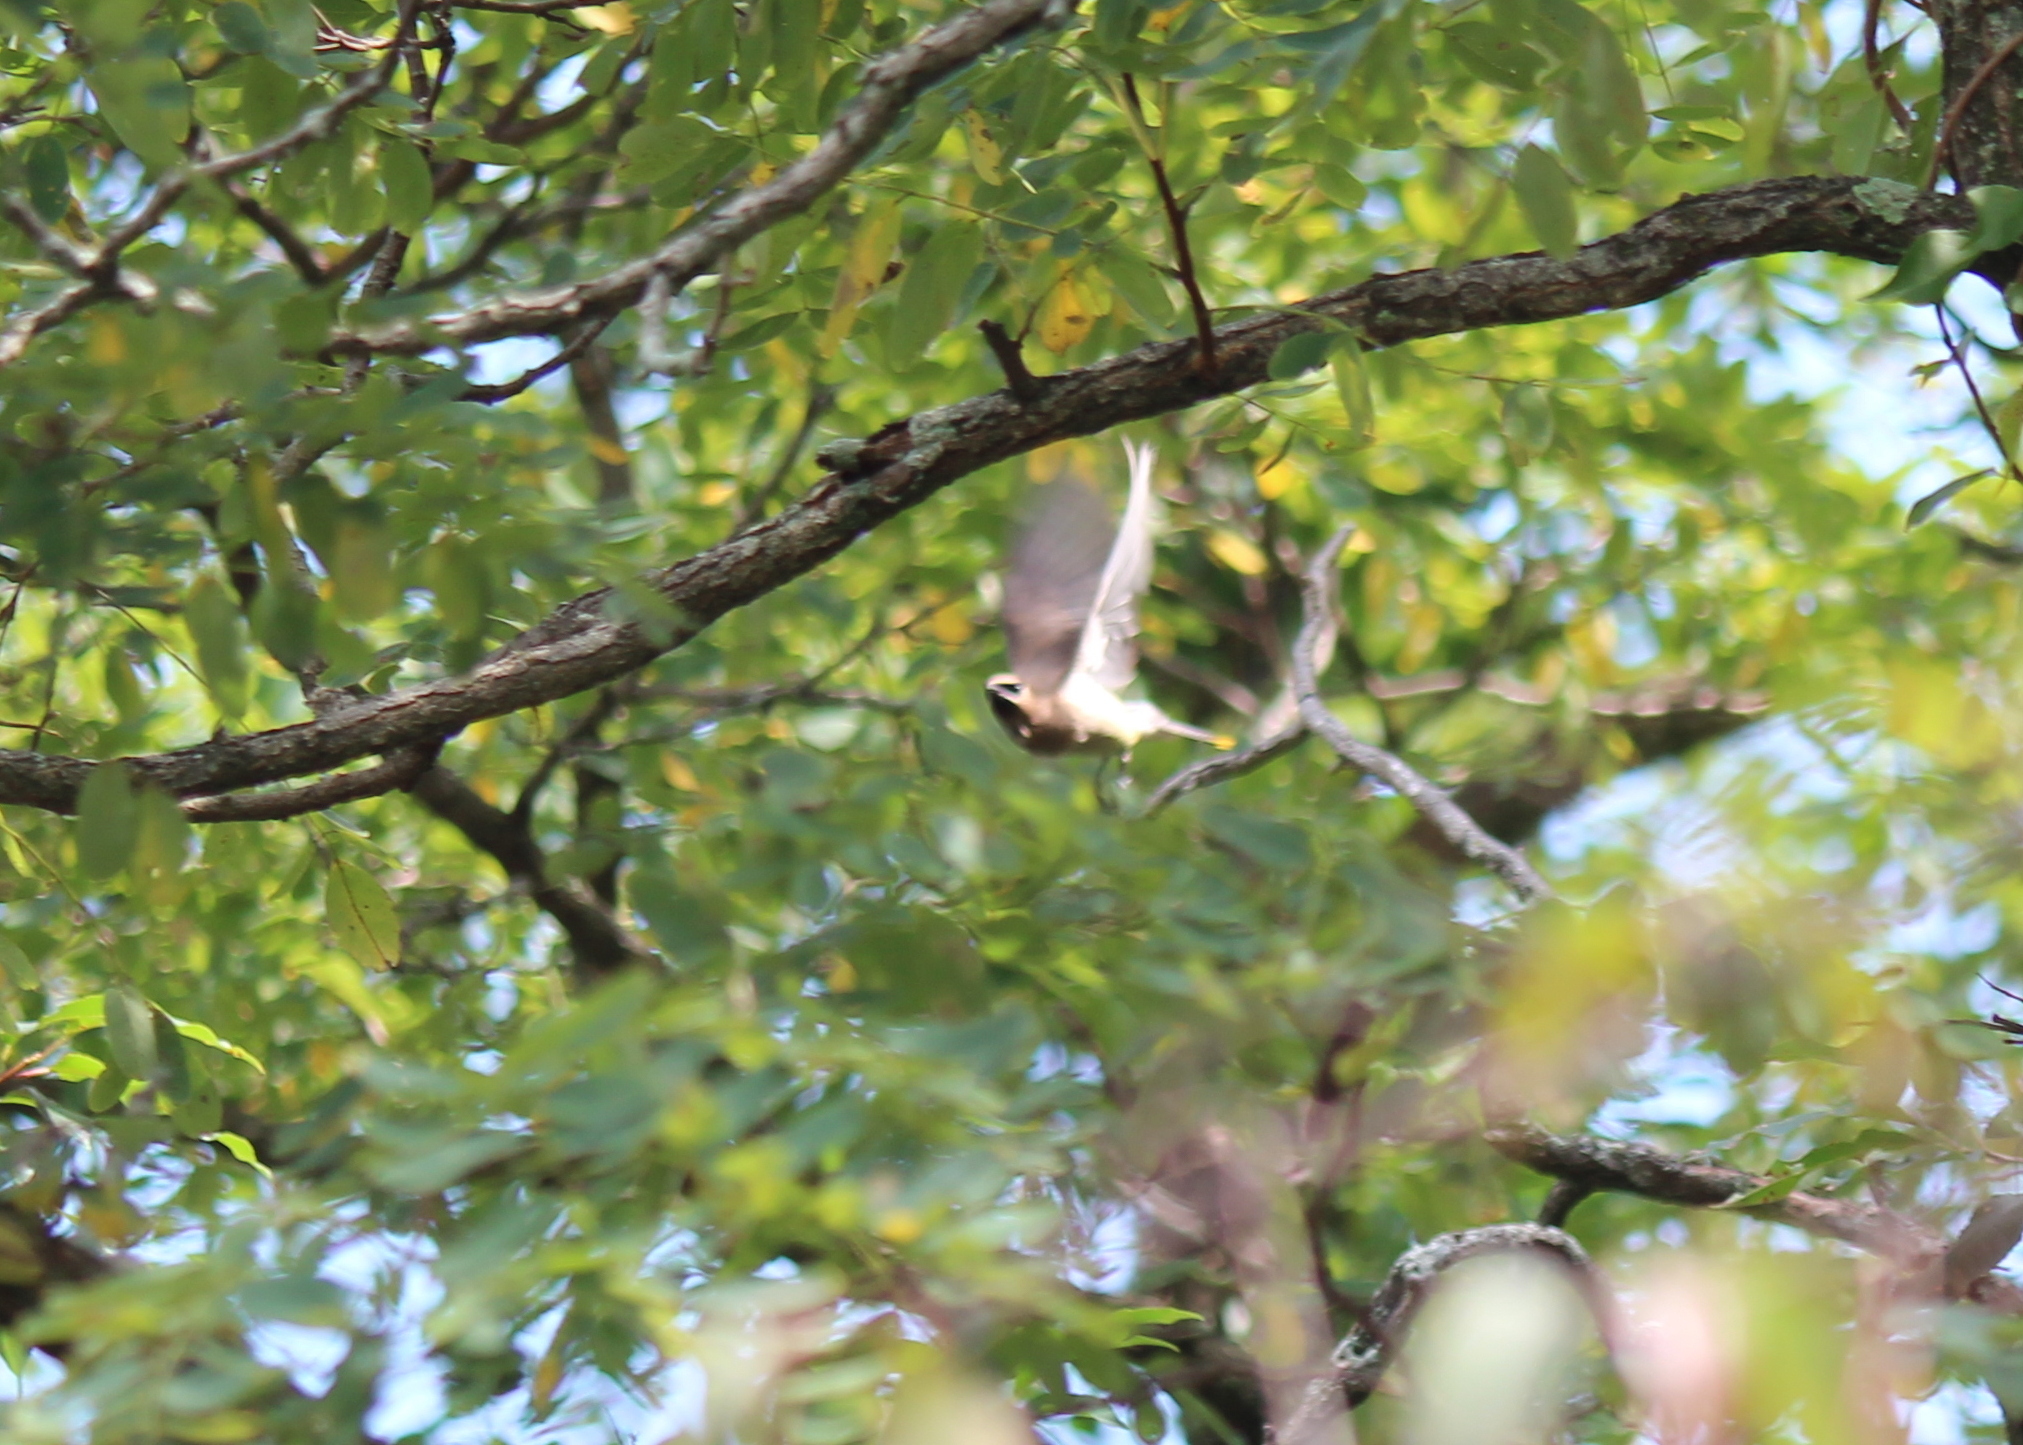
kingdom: Animalia
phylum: Chordata
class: Aves
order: Passeriformes
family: Bombycillidae
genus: Bombycilla
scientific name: Bombycilla cedrorum
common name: Cedar waxwing
